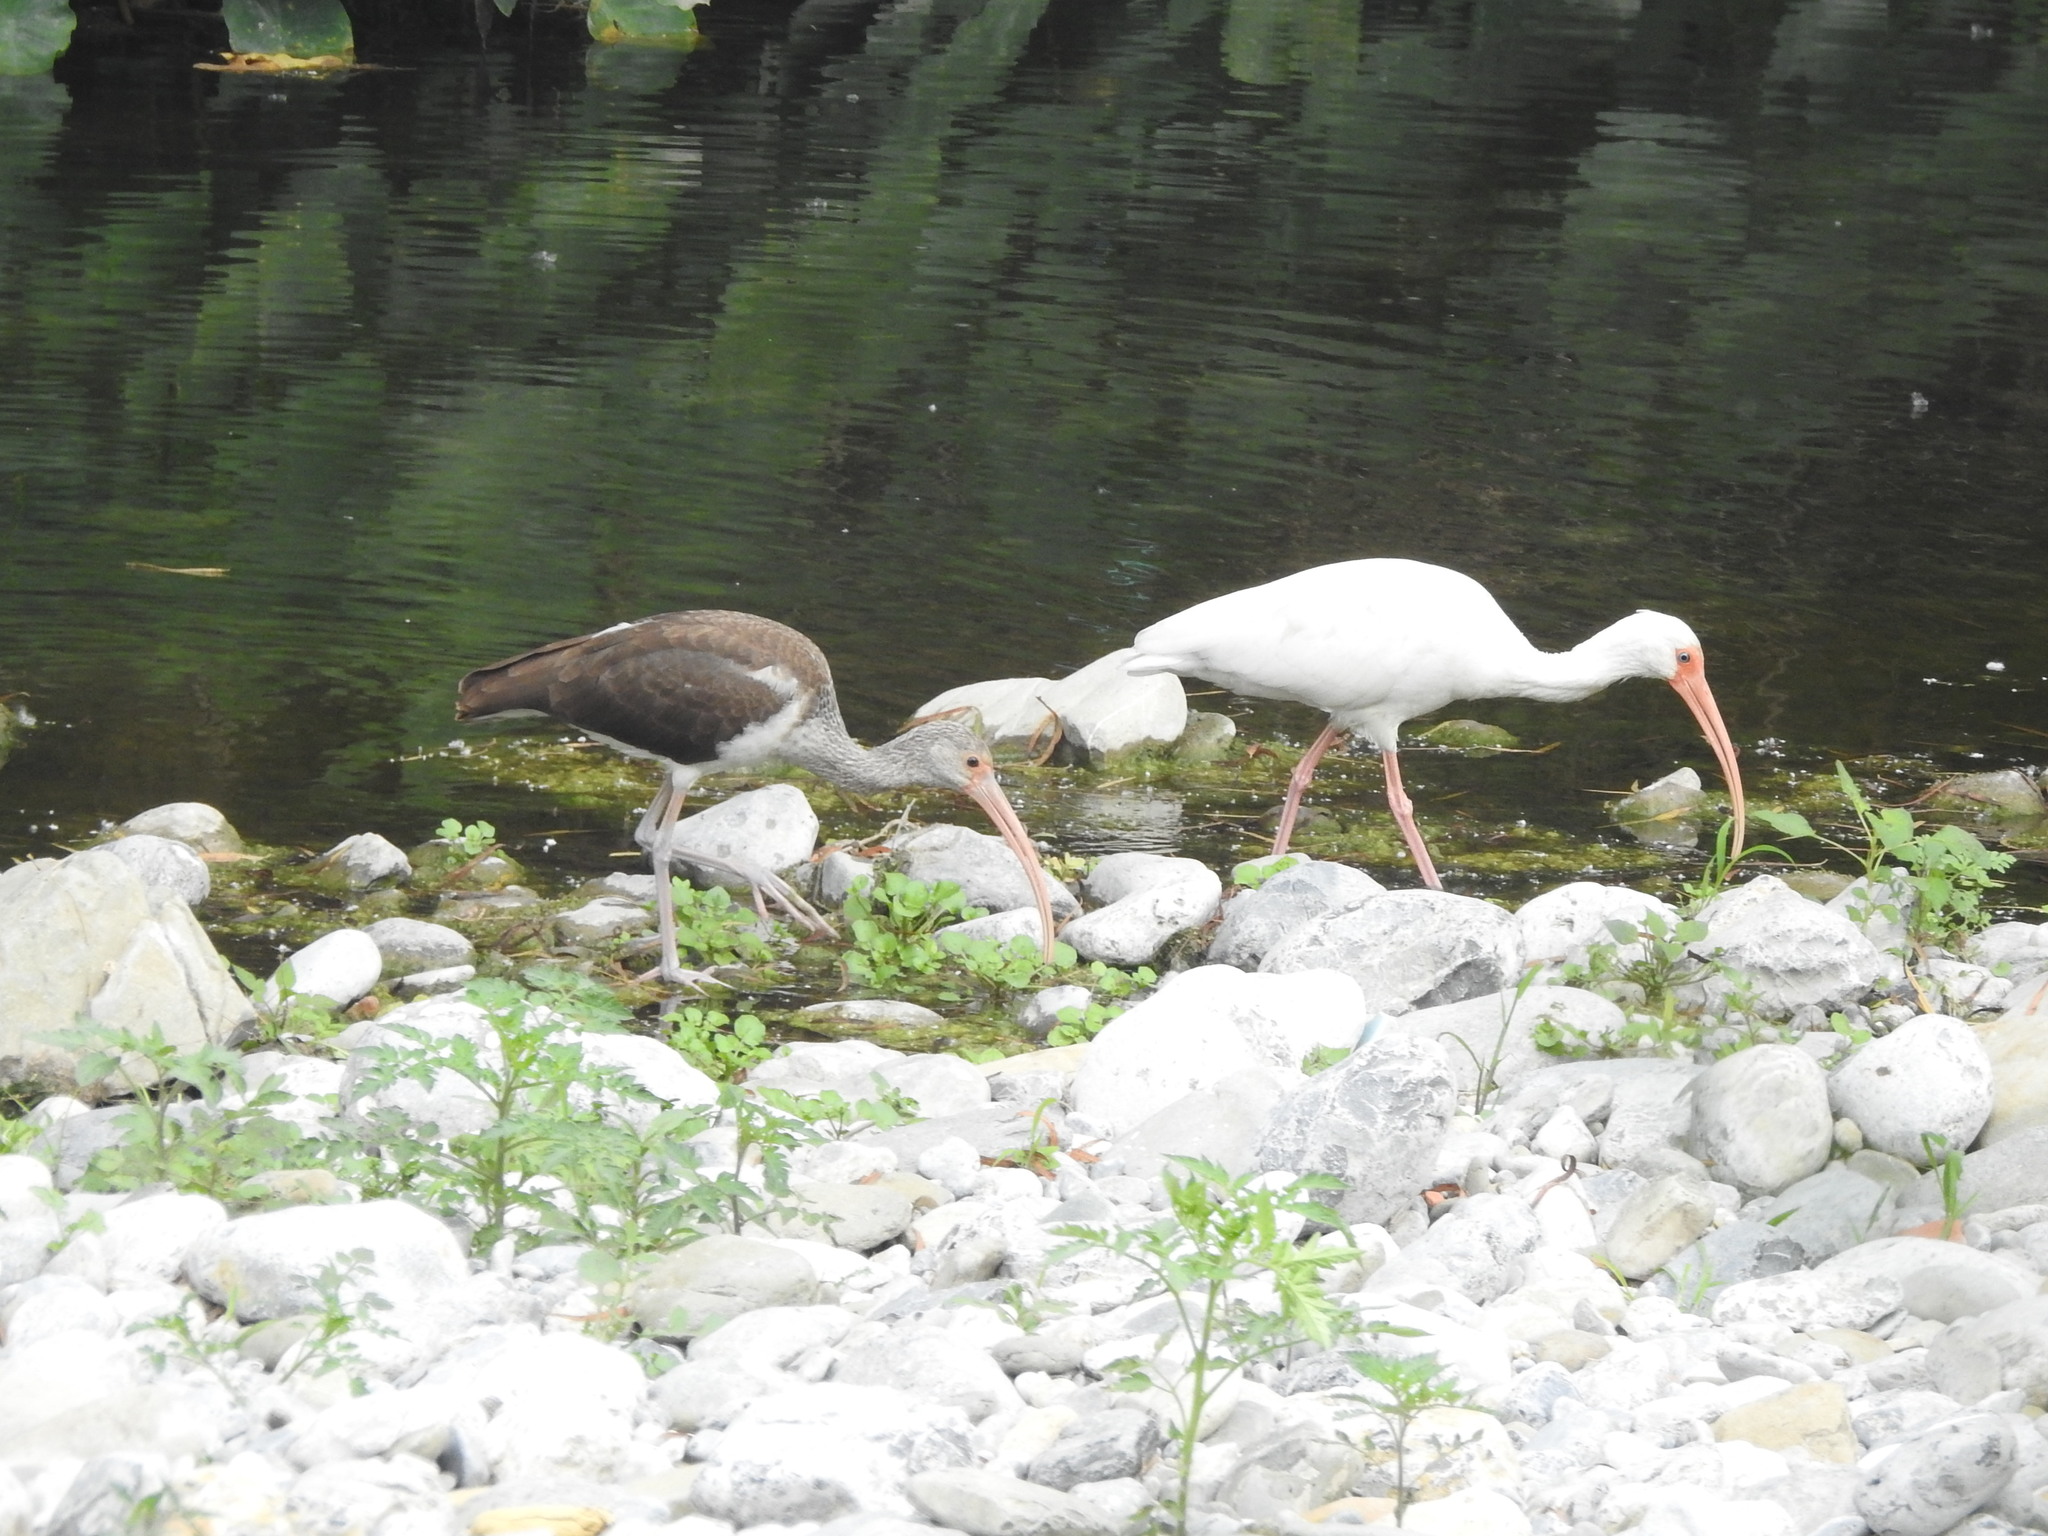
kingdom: Animalia
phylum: Chordata
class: Aves
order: Pelecaniformes
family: Threskiornithidae
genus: Eudocimus
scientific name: Eudocimus albus
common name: White ibis
